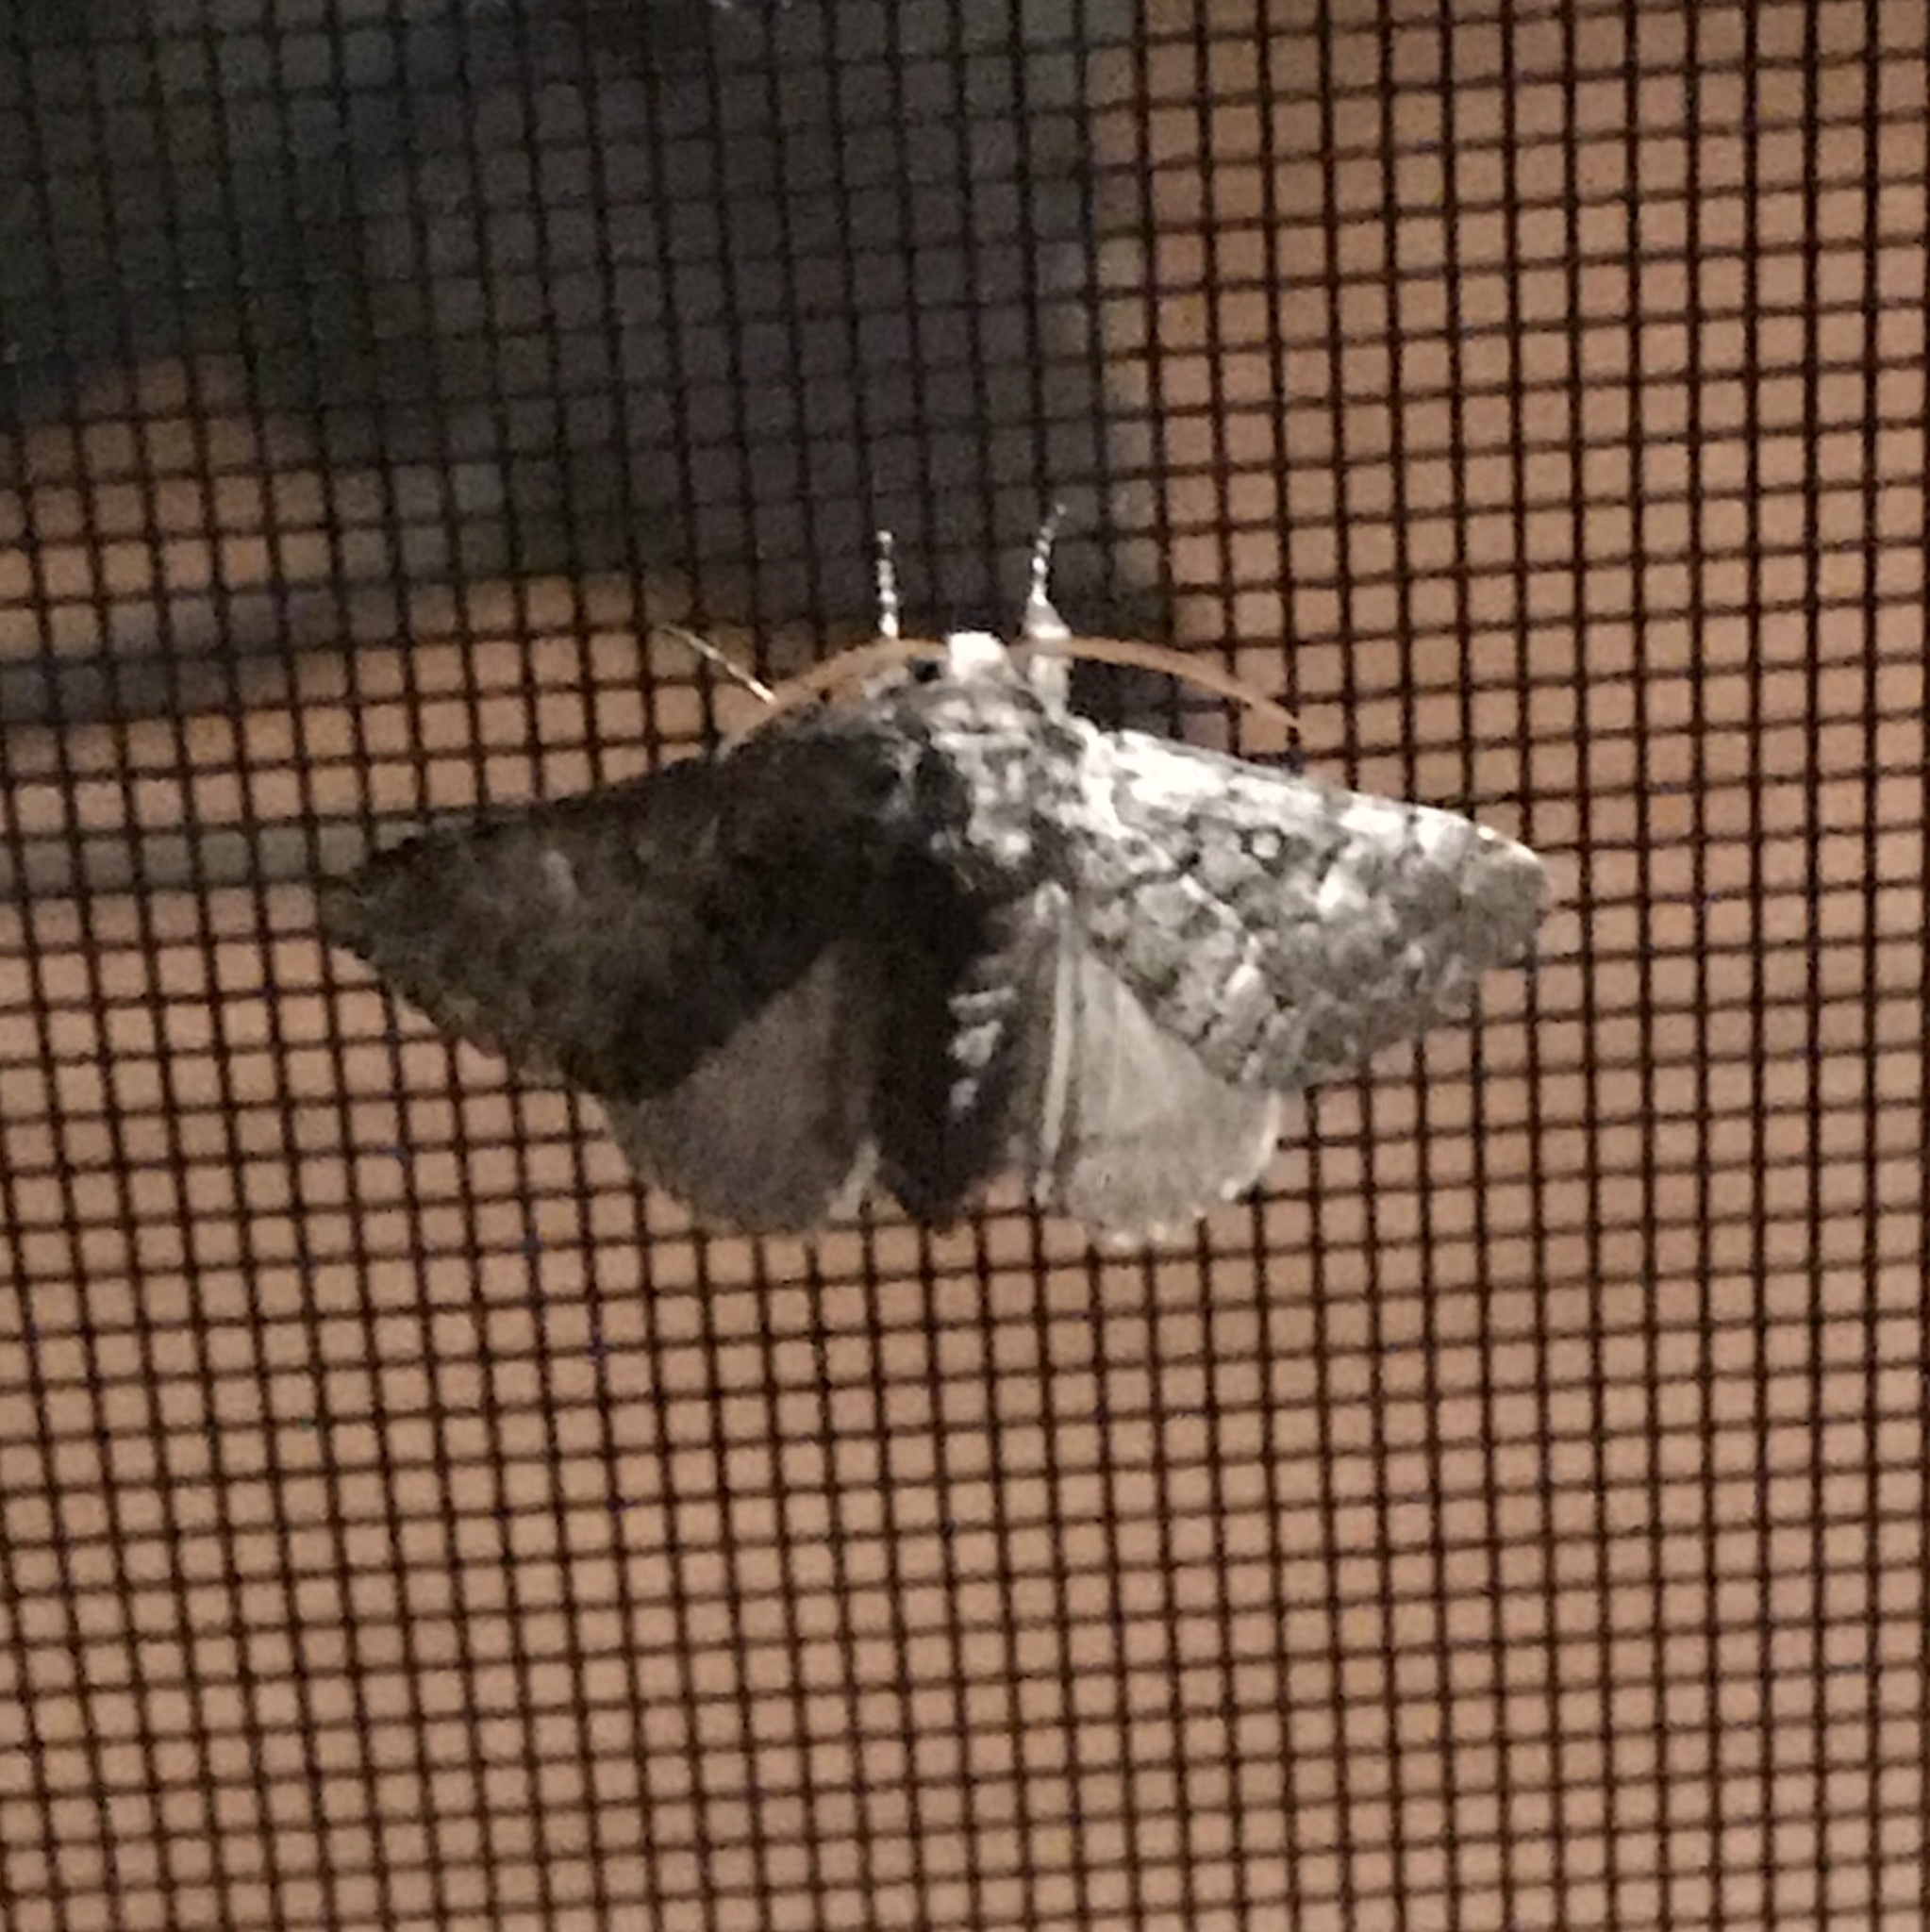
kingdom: Animalia
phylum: Arthropoda
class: Insecta
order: Lepidoptera
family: Noctuidae
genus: Colocasia
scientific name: Colocasia propinquilinea
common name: Close-banded demas
